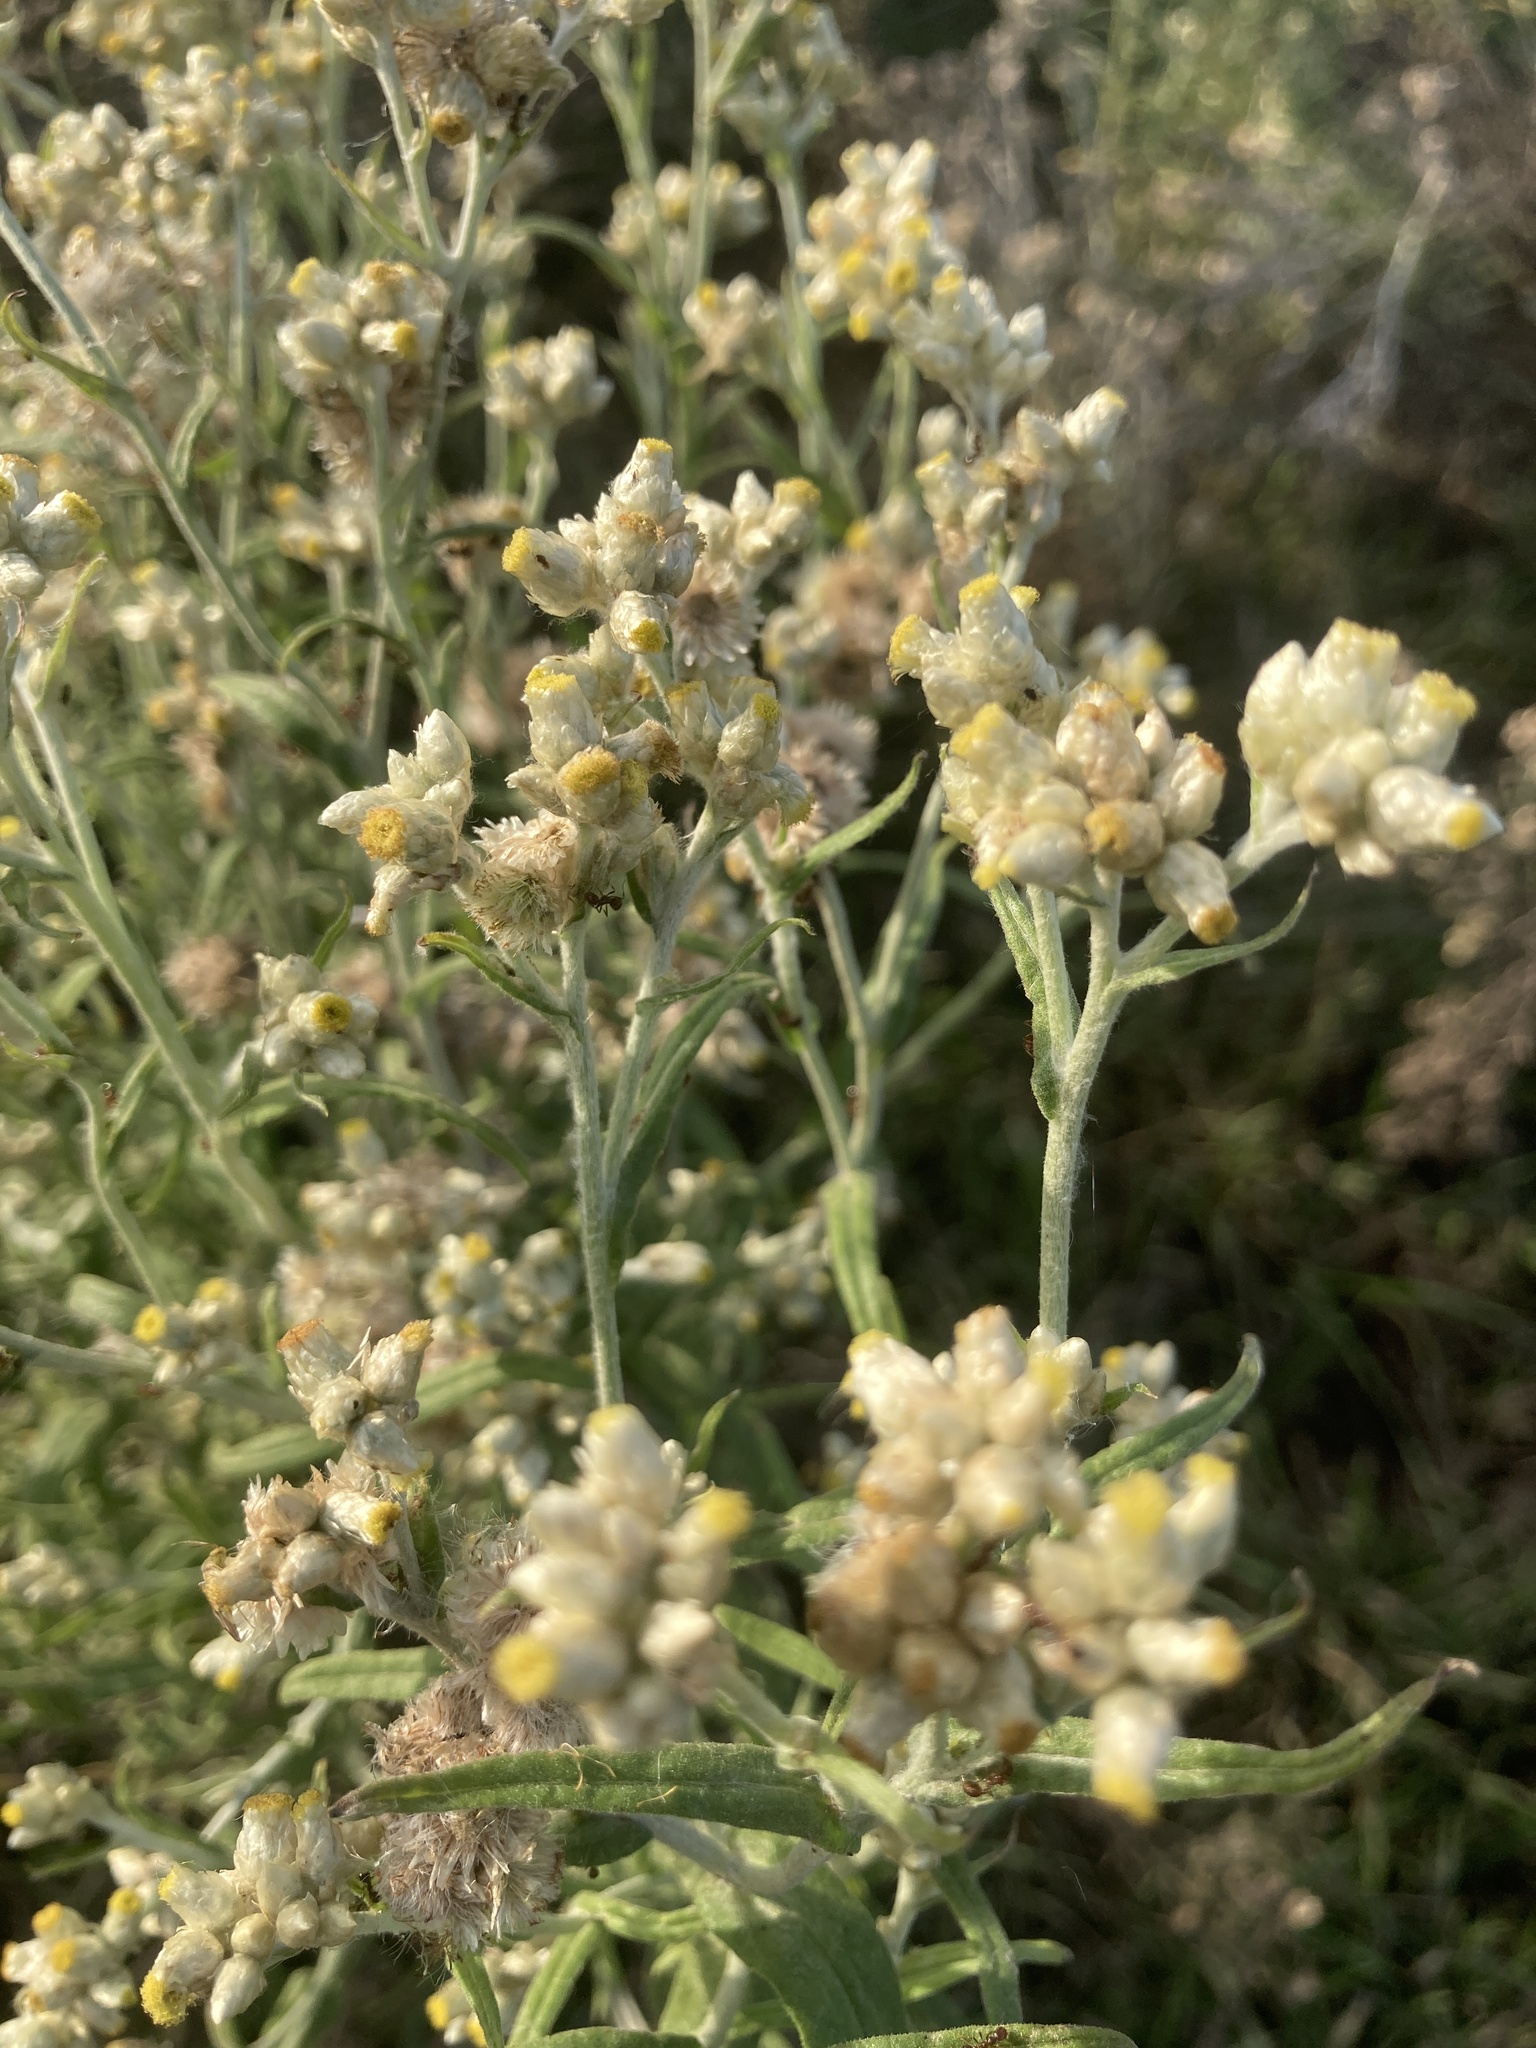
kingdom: Plantae
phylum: Tracheophyta
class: Magnoliopsida
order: Asterales
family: Asteraceae
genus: Pseudognaphalium
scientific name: Pseudognaphalium gaudichaudianum
